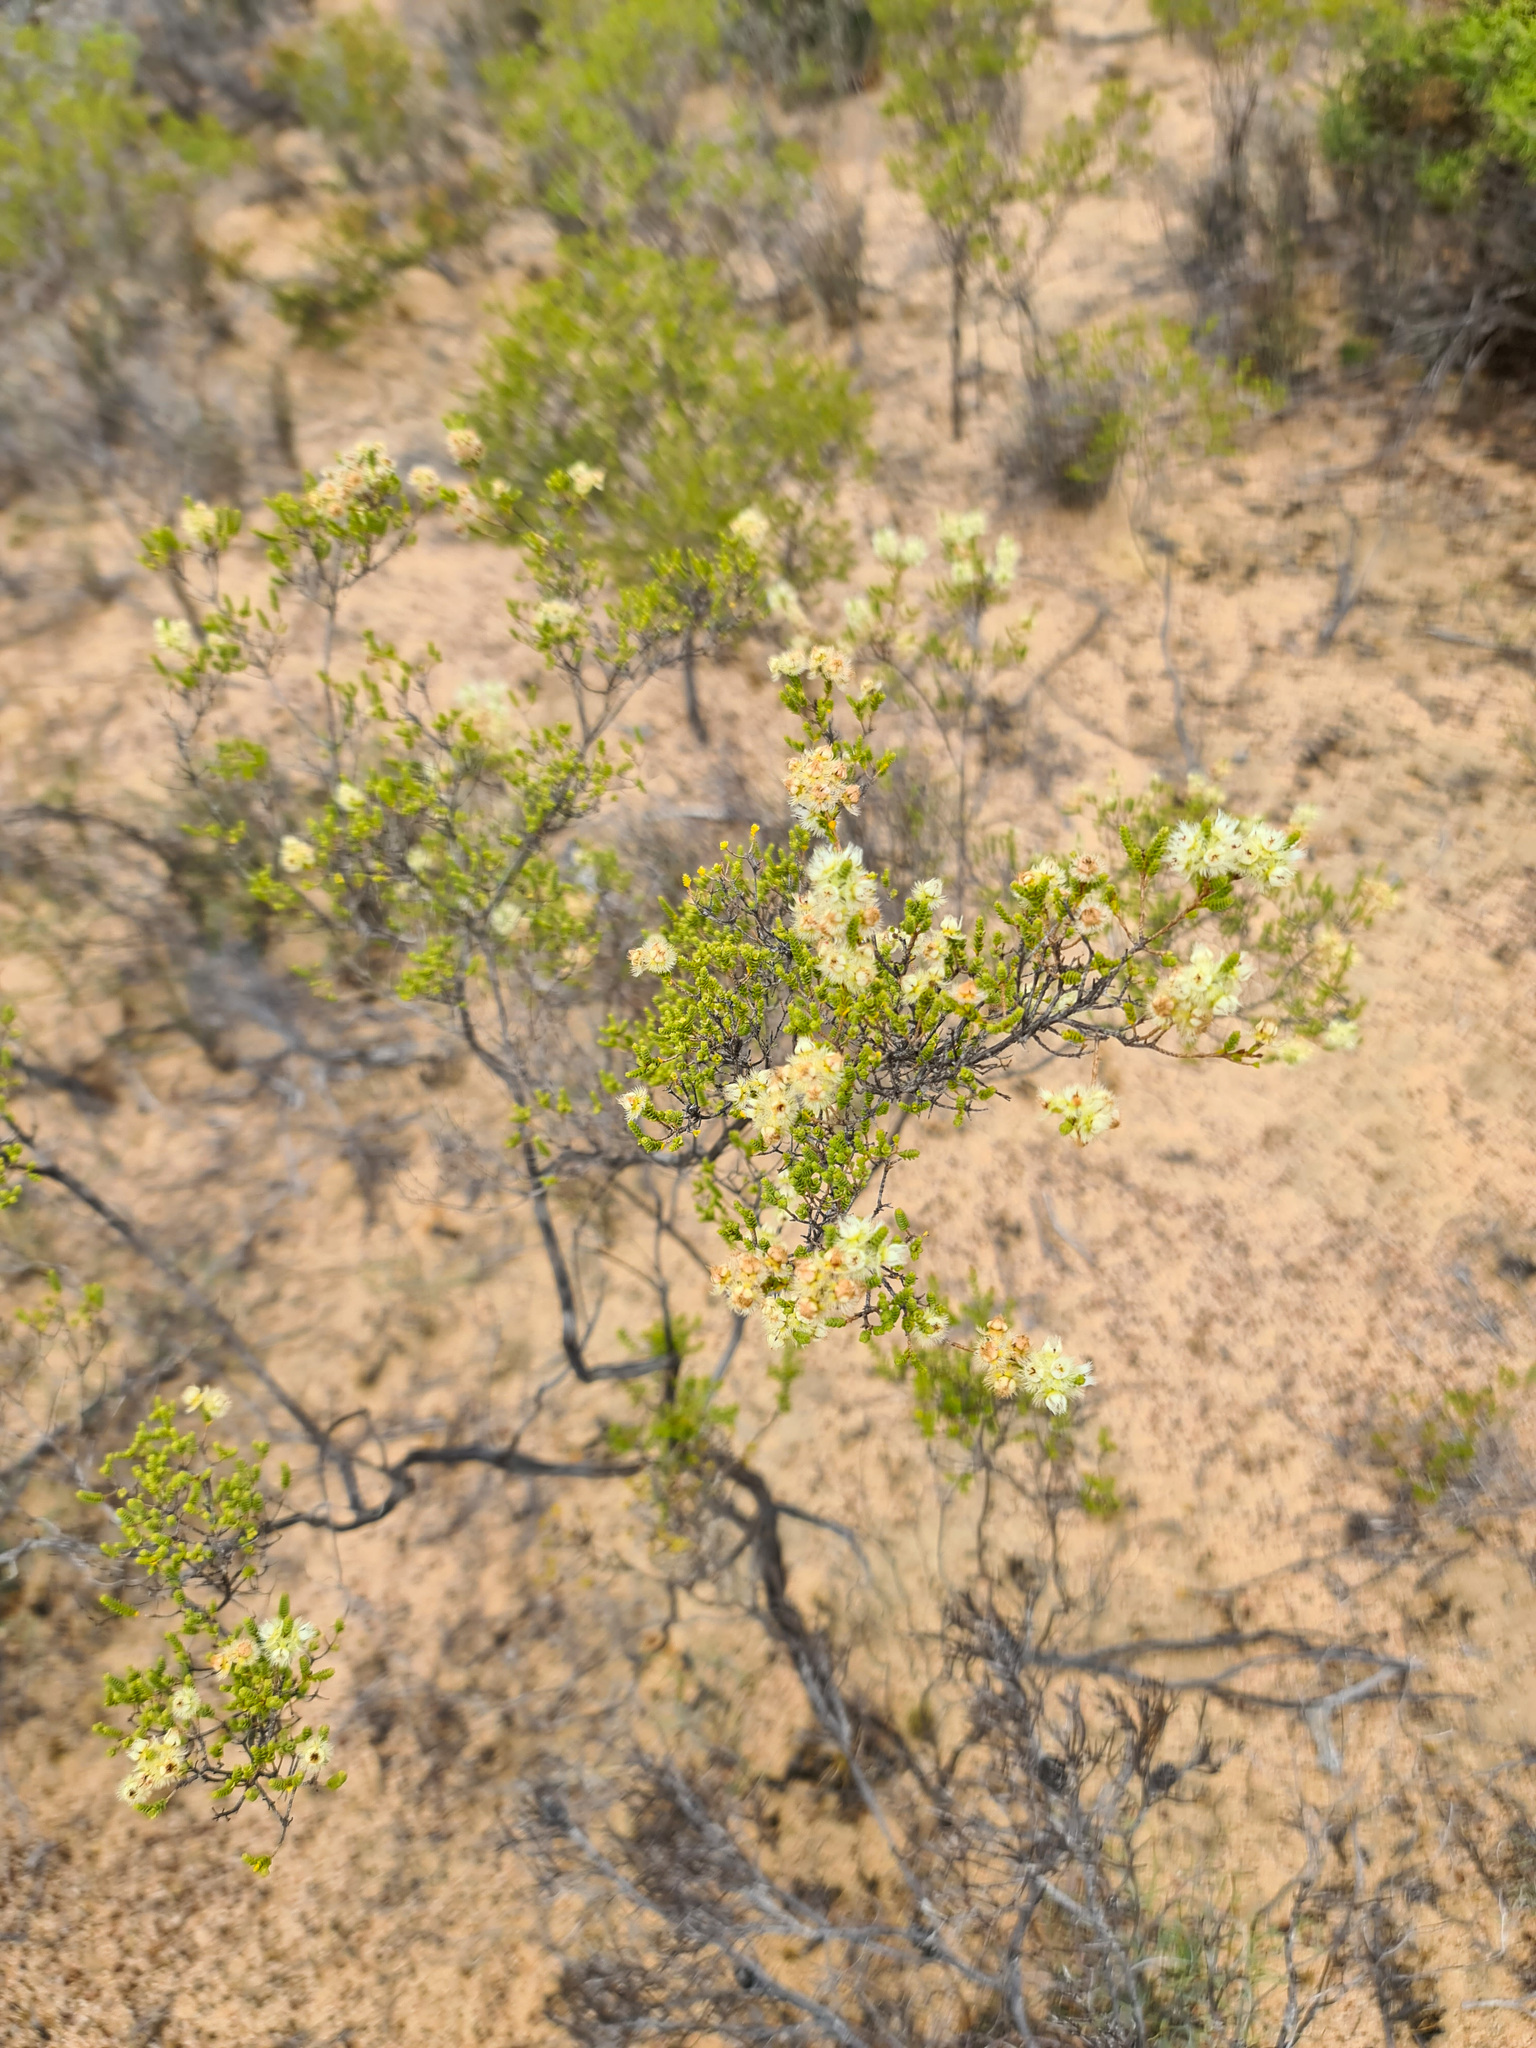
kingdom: Plantae
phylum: Tracheophyta
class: Magnoliopsida
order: Myrtales
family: Myrtaceae
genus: Verticordia
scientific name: Verticordia pholidophylla
